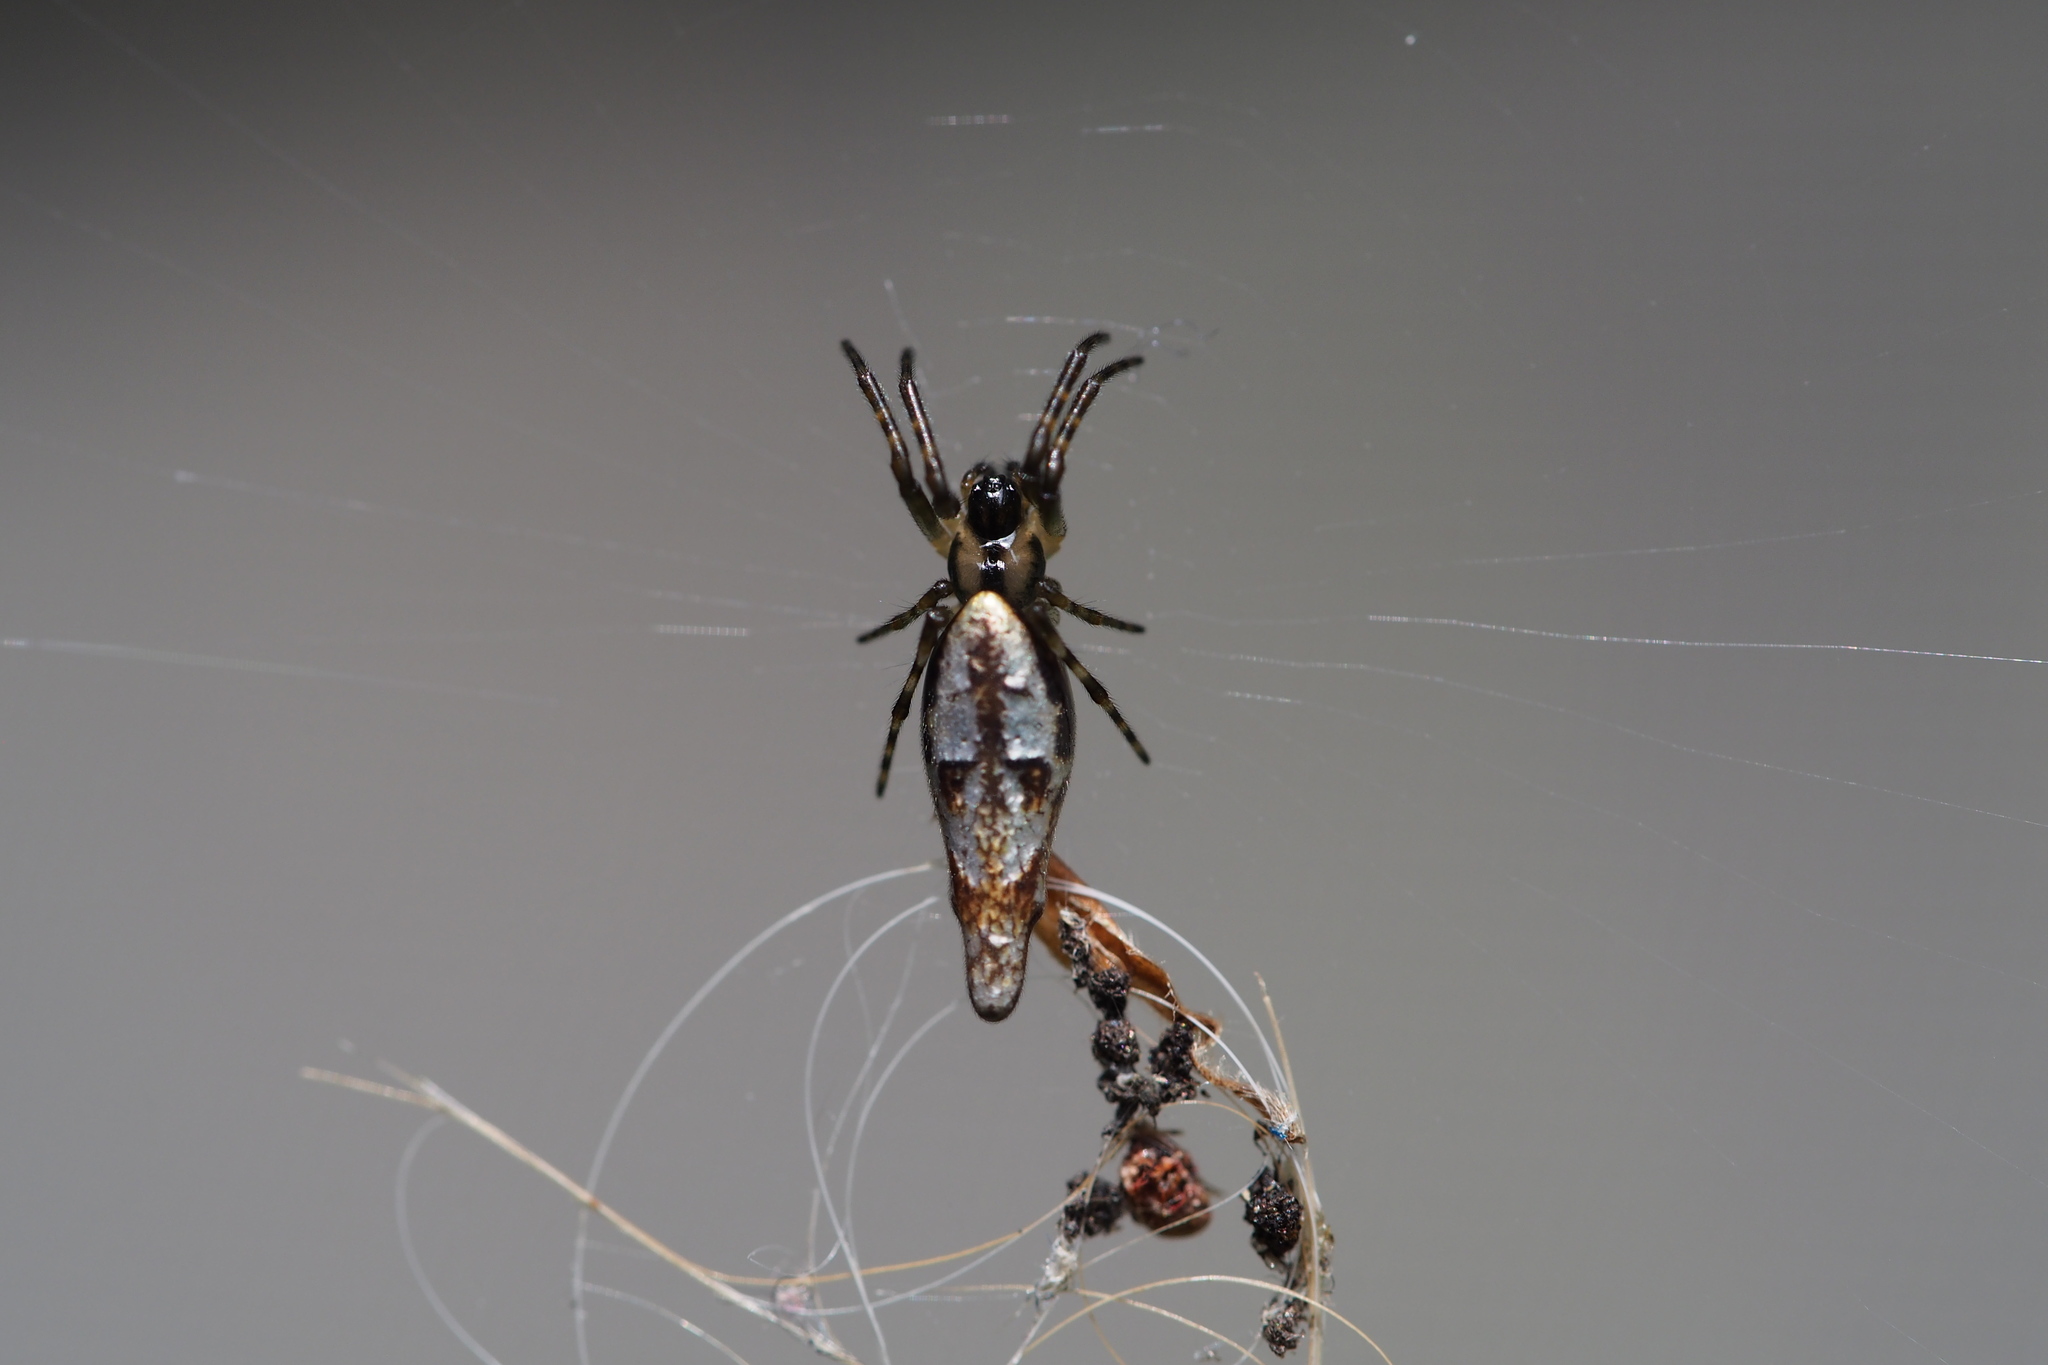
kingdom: Animalia
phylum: Arthropoda
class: Arachnida
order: Araneae
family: Araneidae
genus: Cyclosa
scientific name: Cyclosa ginnaga
